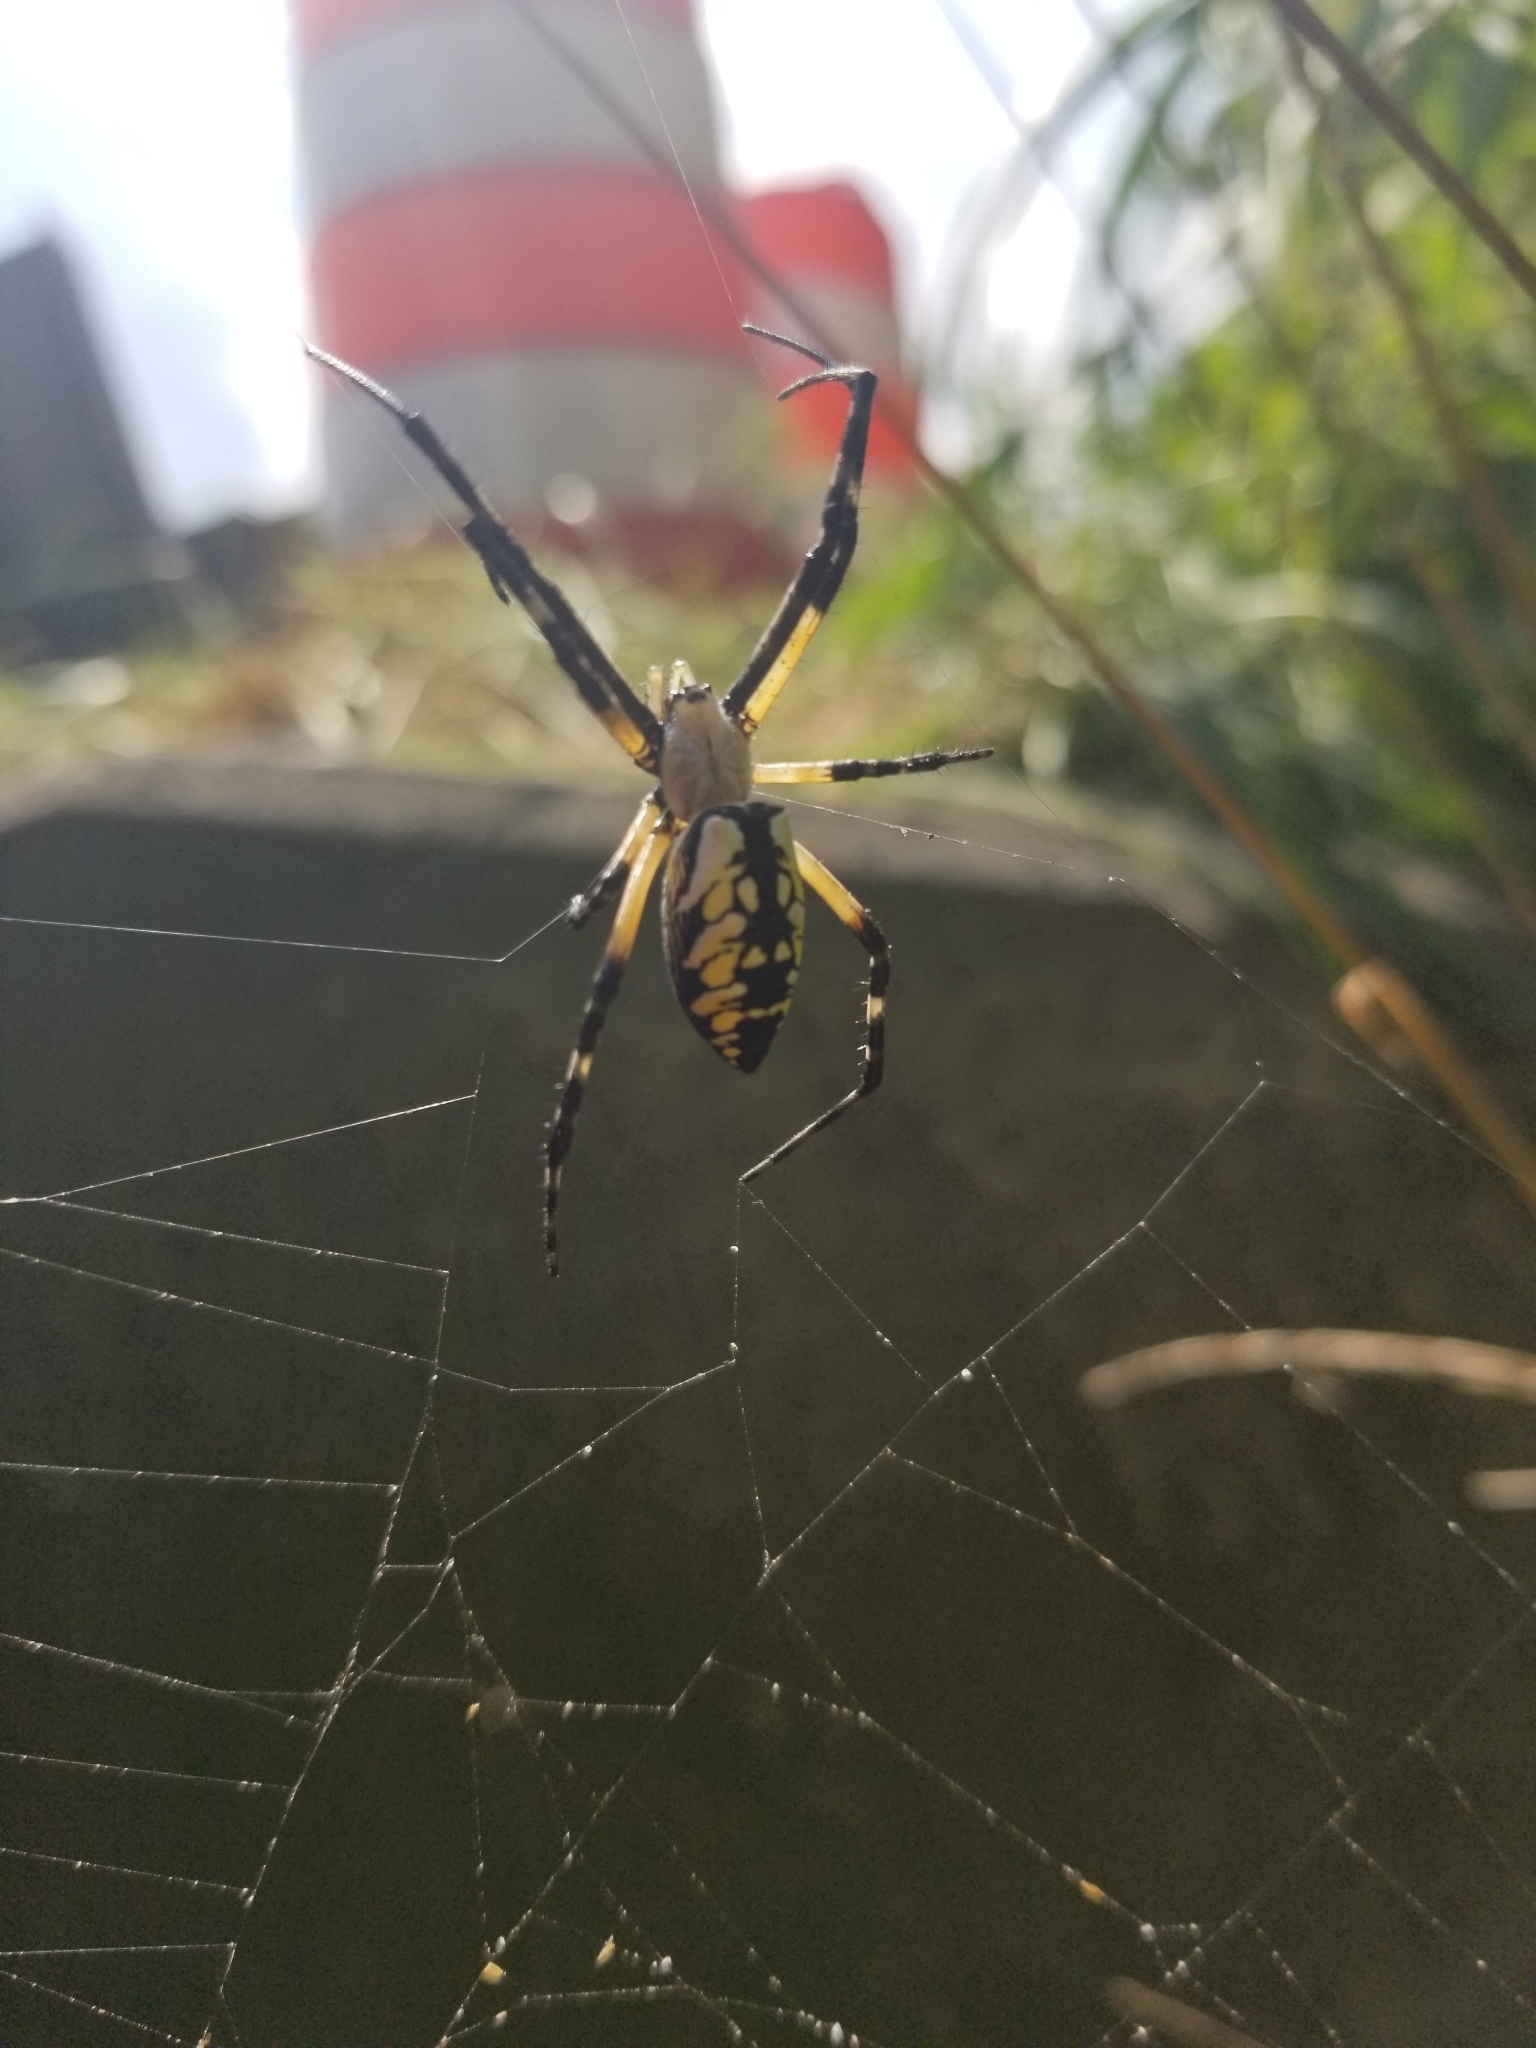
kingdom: Animalia
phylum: Arthropoda
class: Arachnida
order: Araneae
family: Araneidae
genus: Argiope
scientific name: Argiope aurantia
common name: Orb weavers
